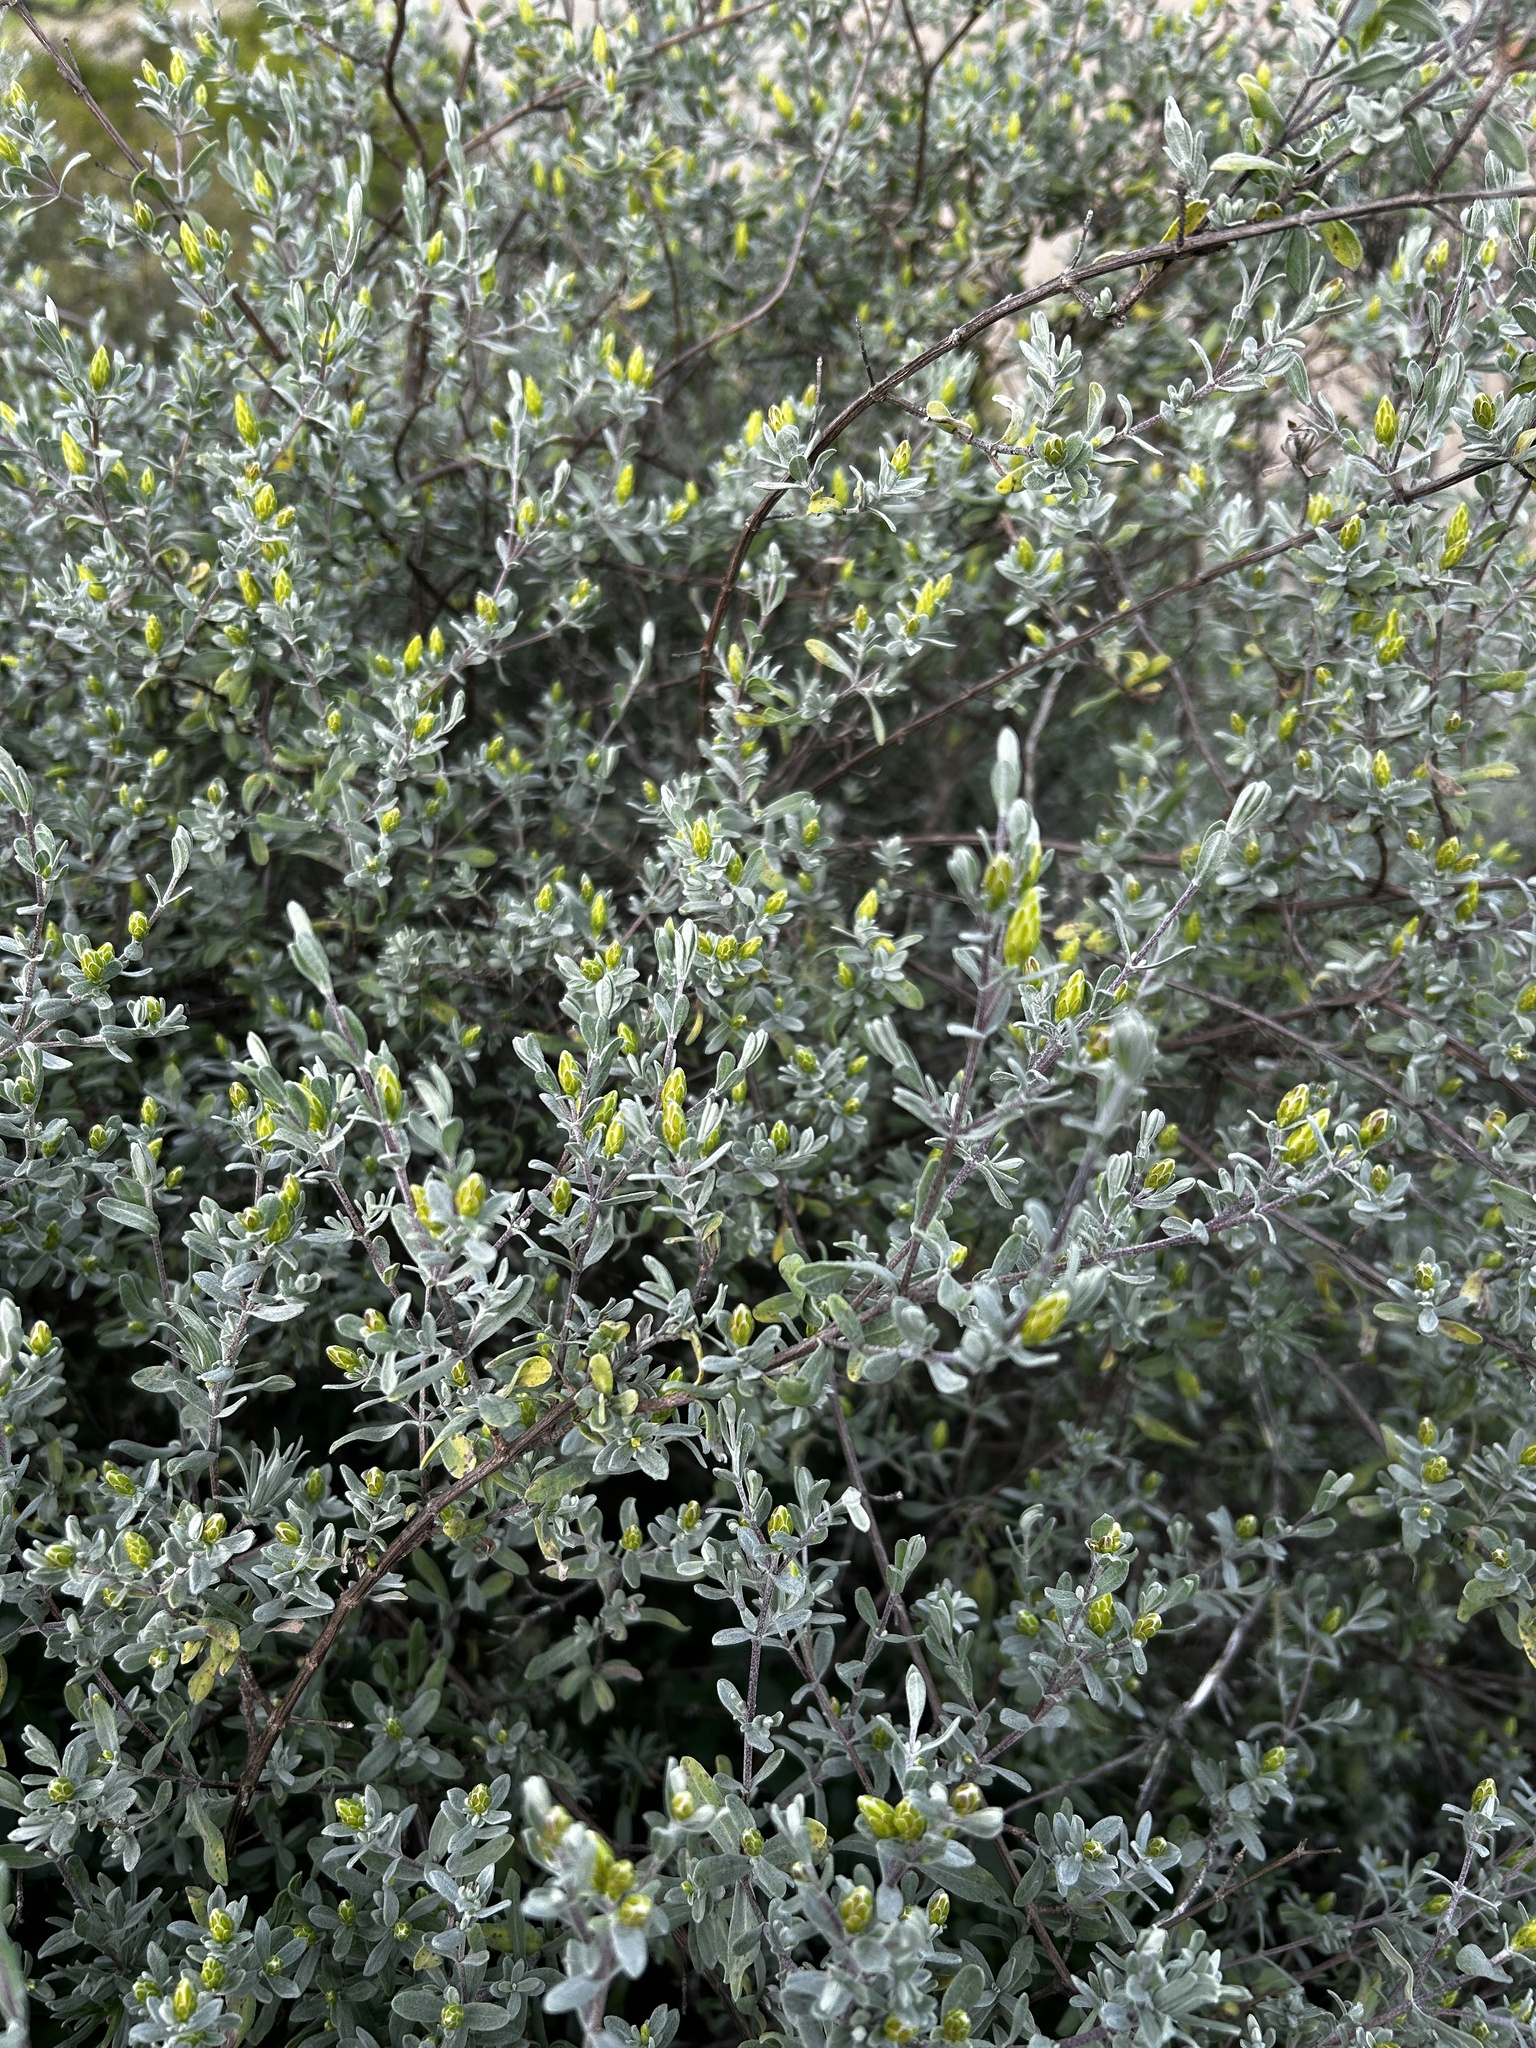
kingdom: Plantae
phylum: Tracheophyta
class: Magnoliopsida
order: Asterales
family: Asteraceae
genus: Pteronia
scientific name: Pteronia incana
